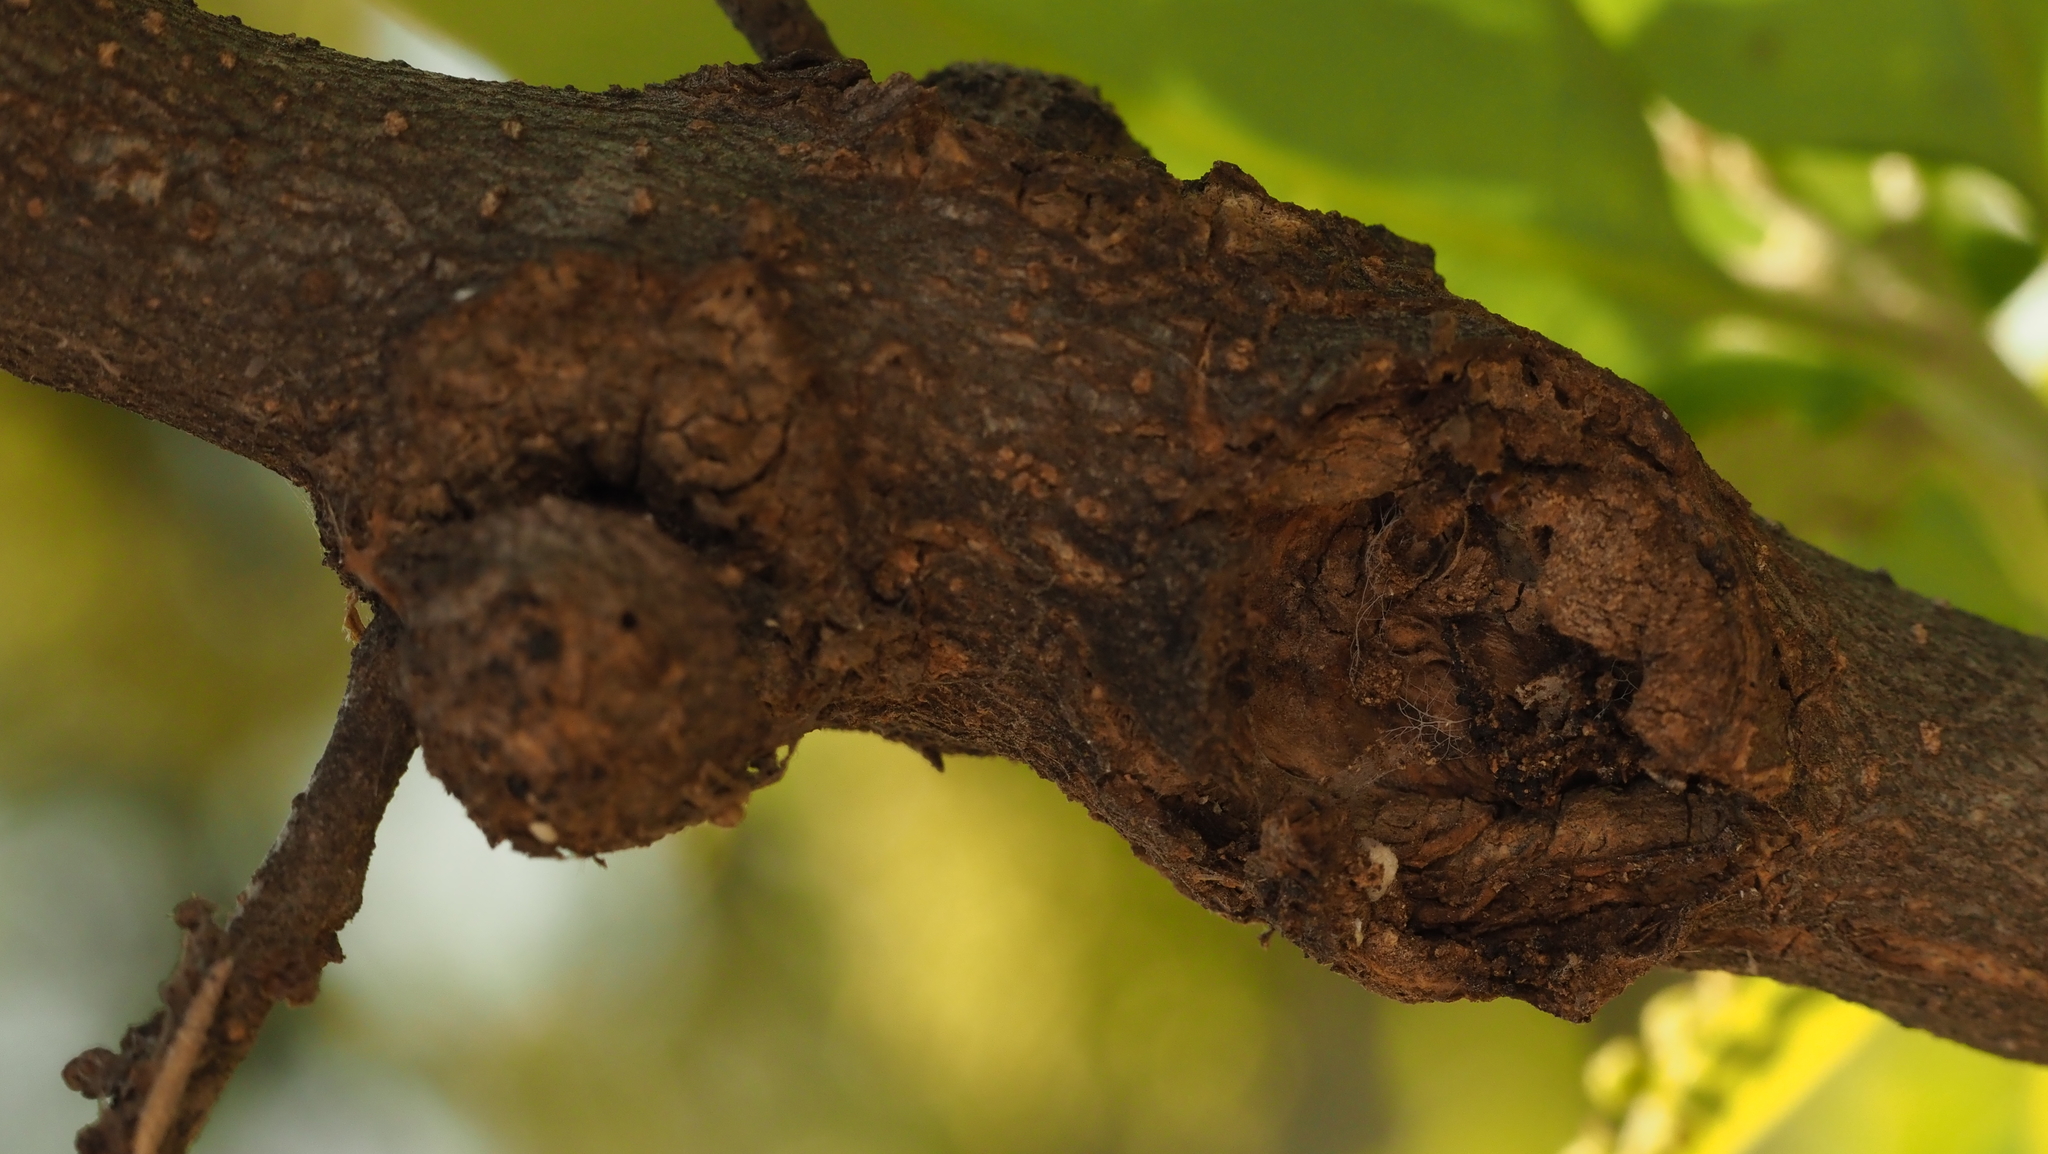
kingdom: Animalia
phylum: Arthropoda
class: Insecta
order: Hymenoptera
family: Cynipidae
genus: Callirhytis
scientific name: Callirhytis
